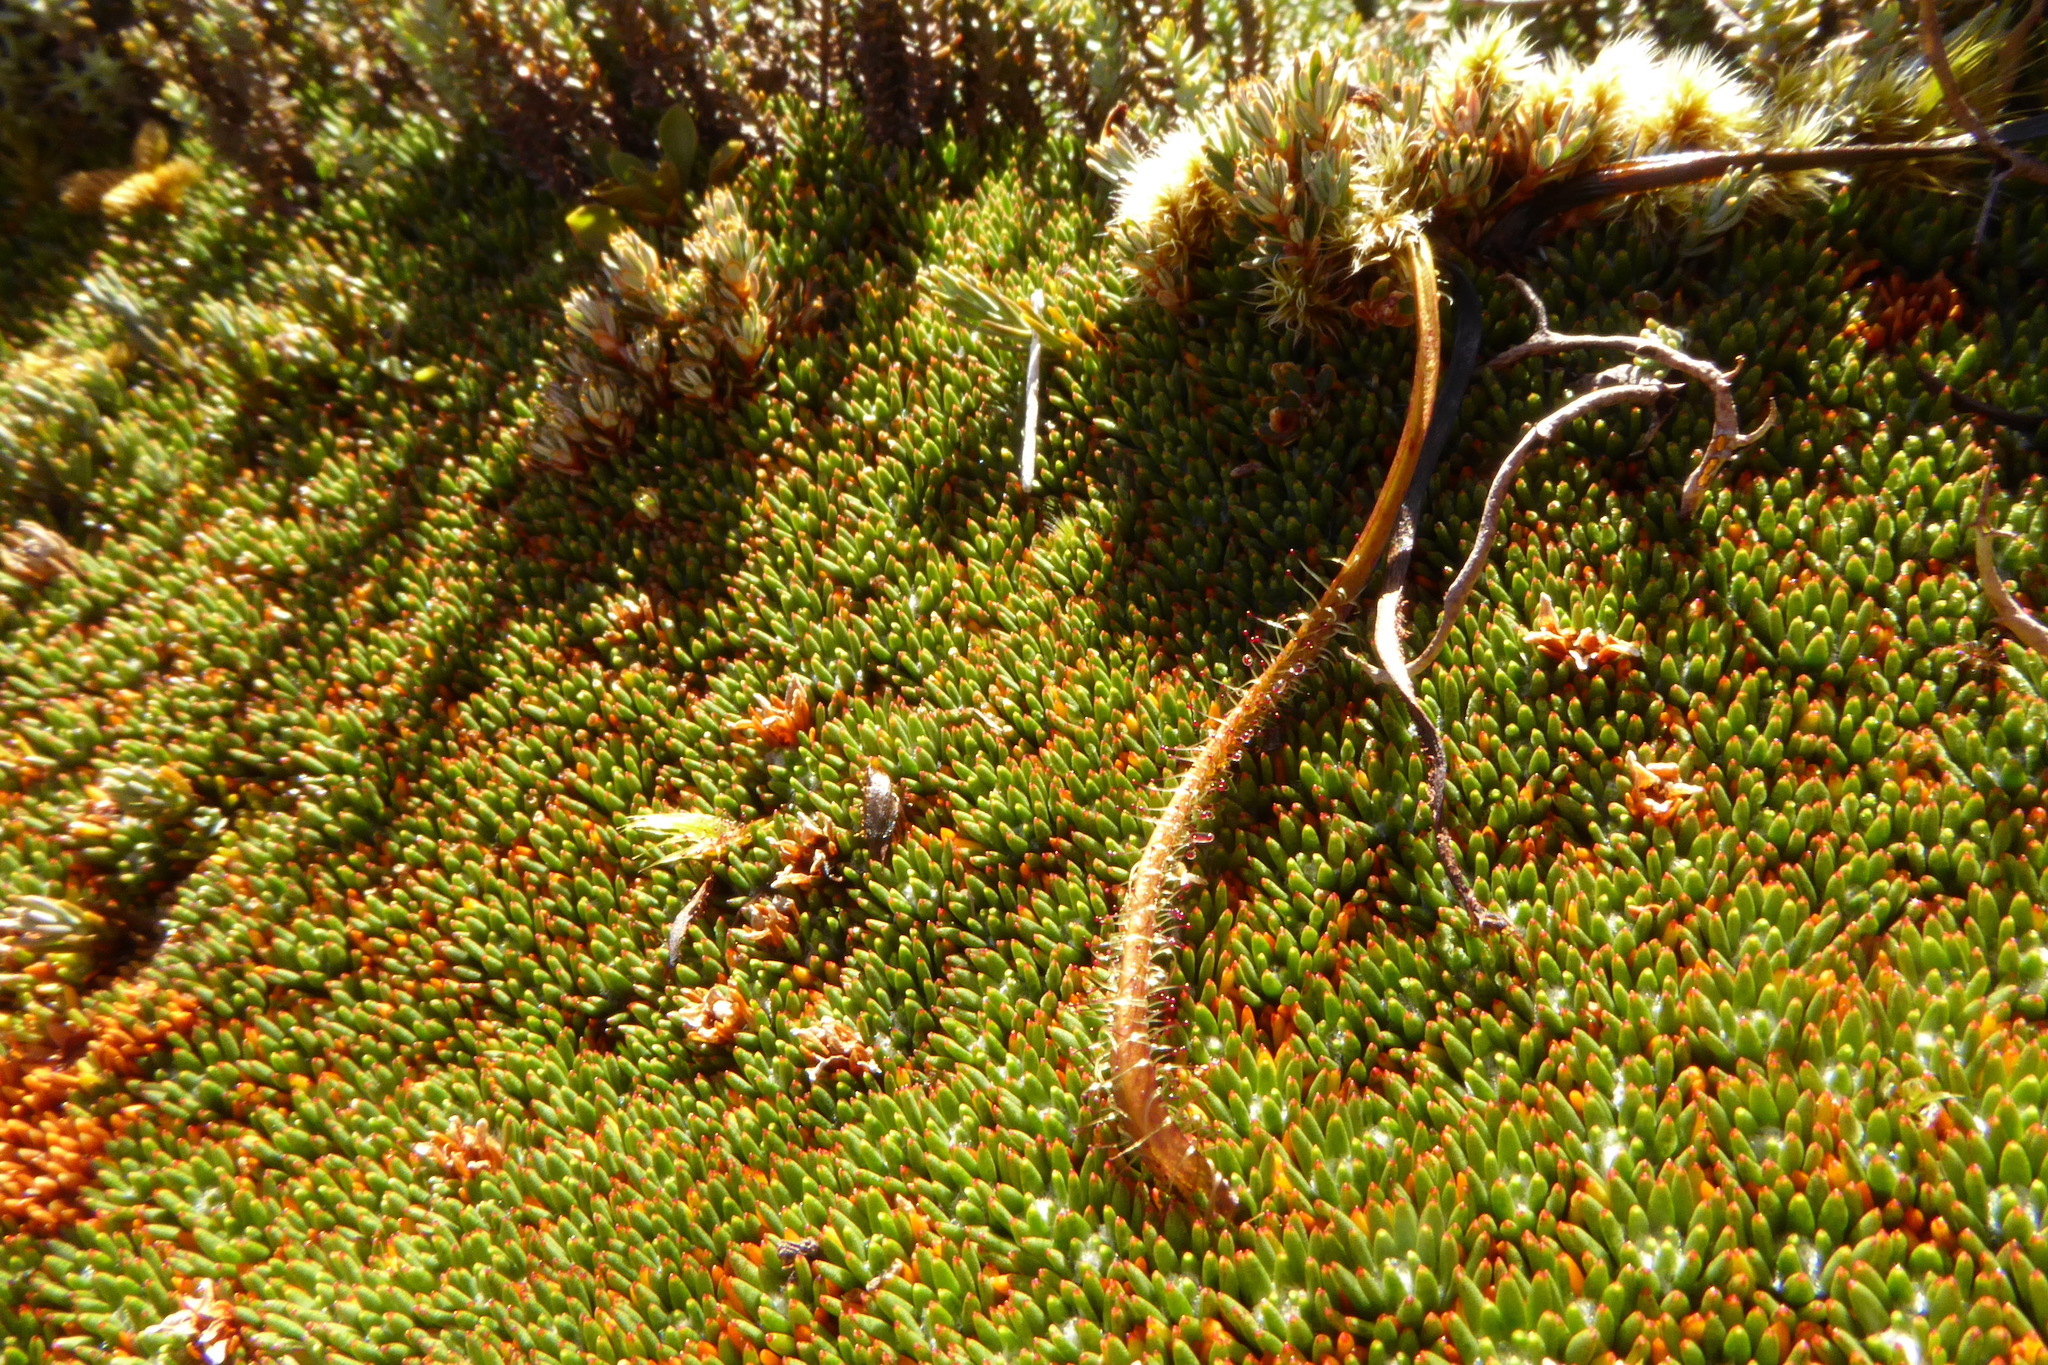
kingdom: Plantae
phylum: Tracheophyta
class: Magnoliopsida
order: Caryophyllales
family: Droseraceae
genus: Drosera
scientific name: Drosera arcturi
